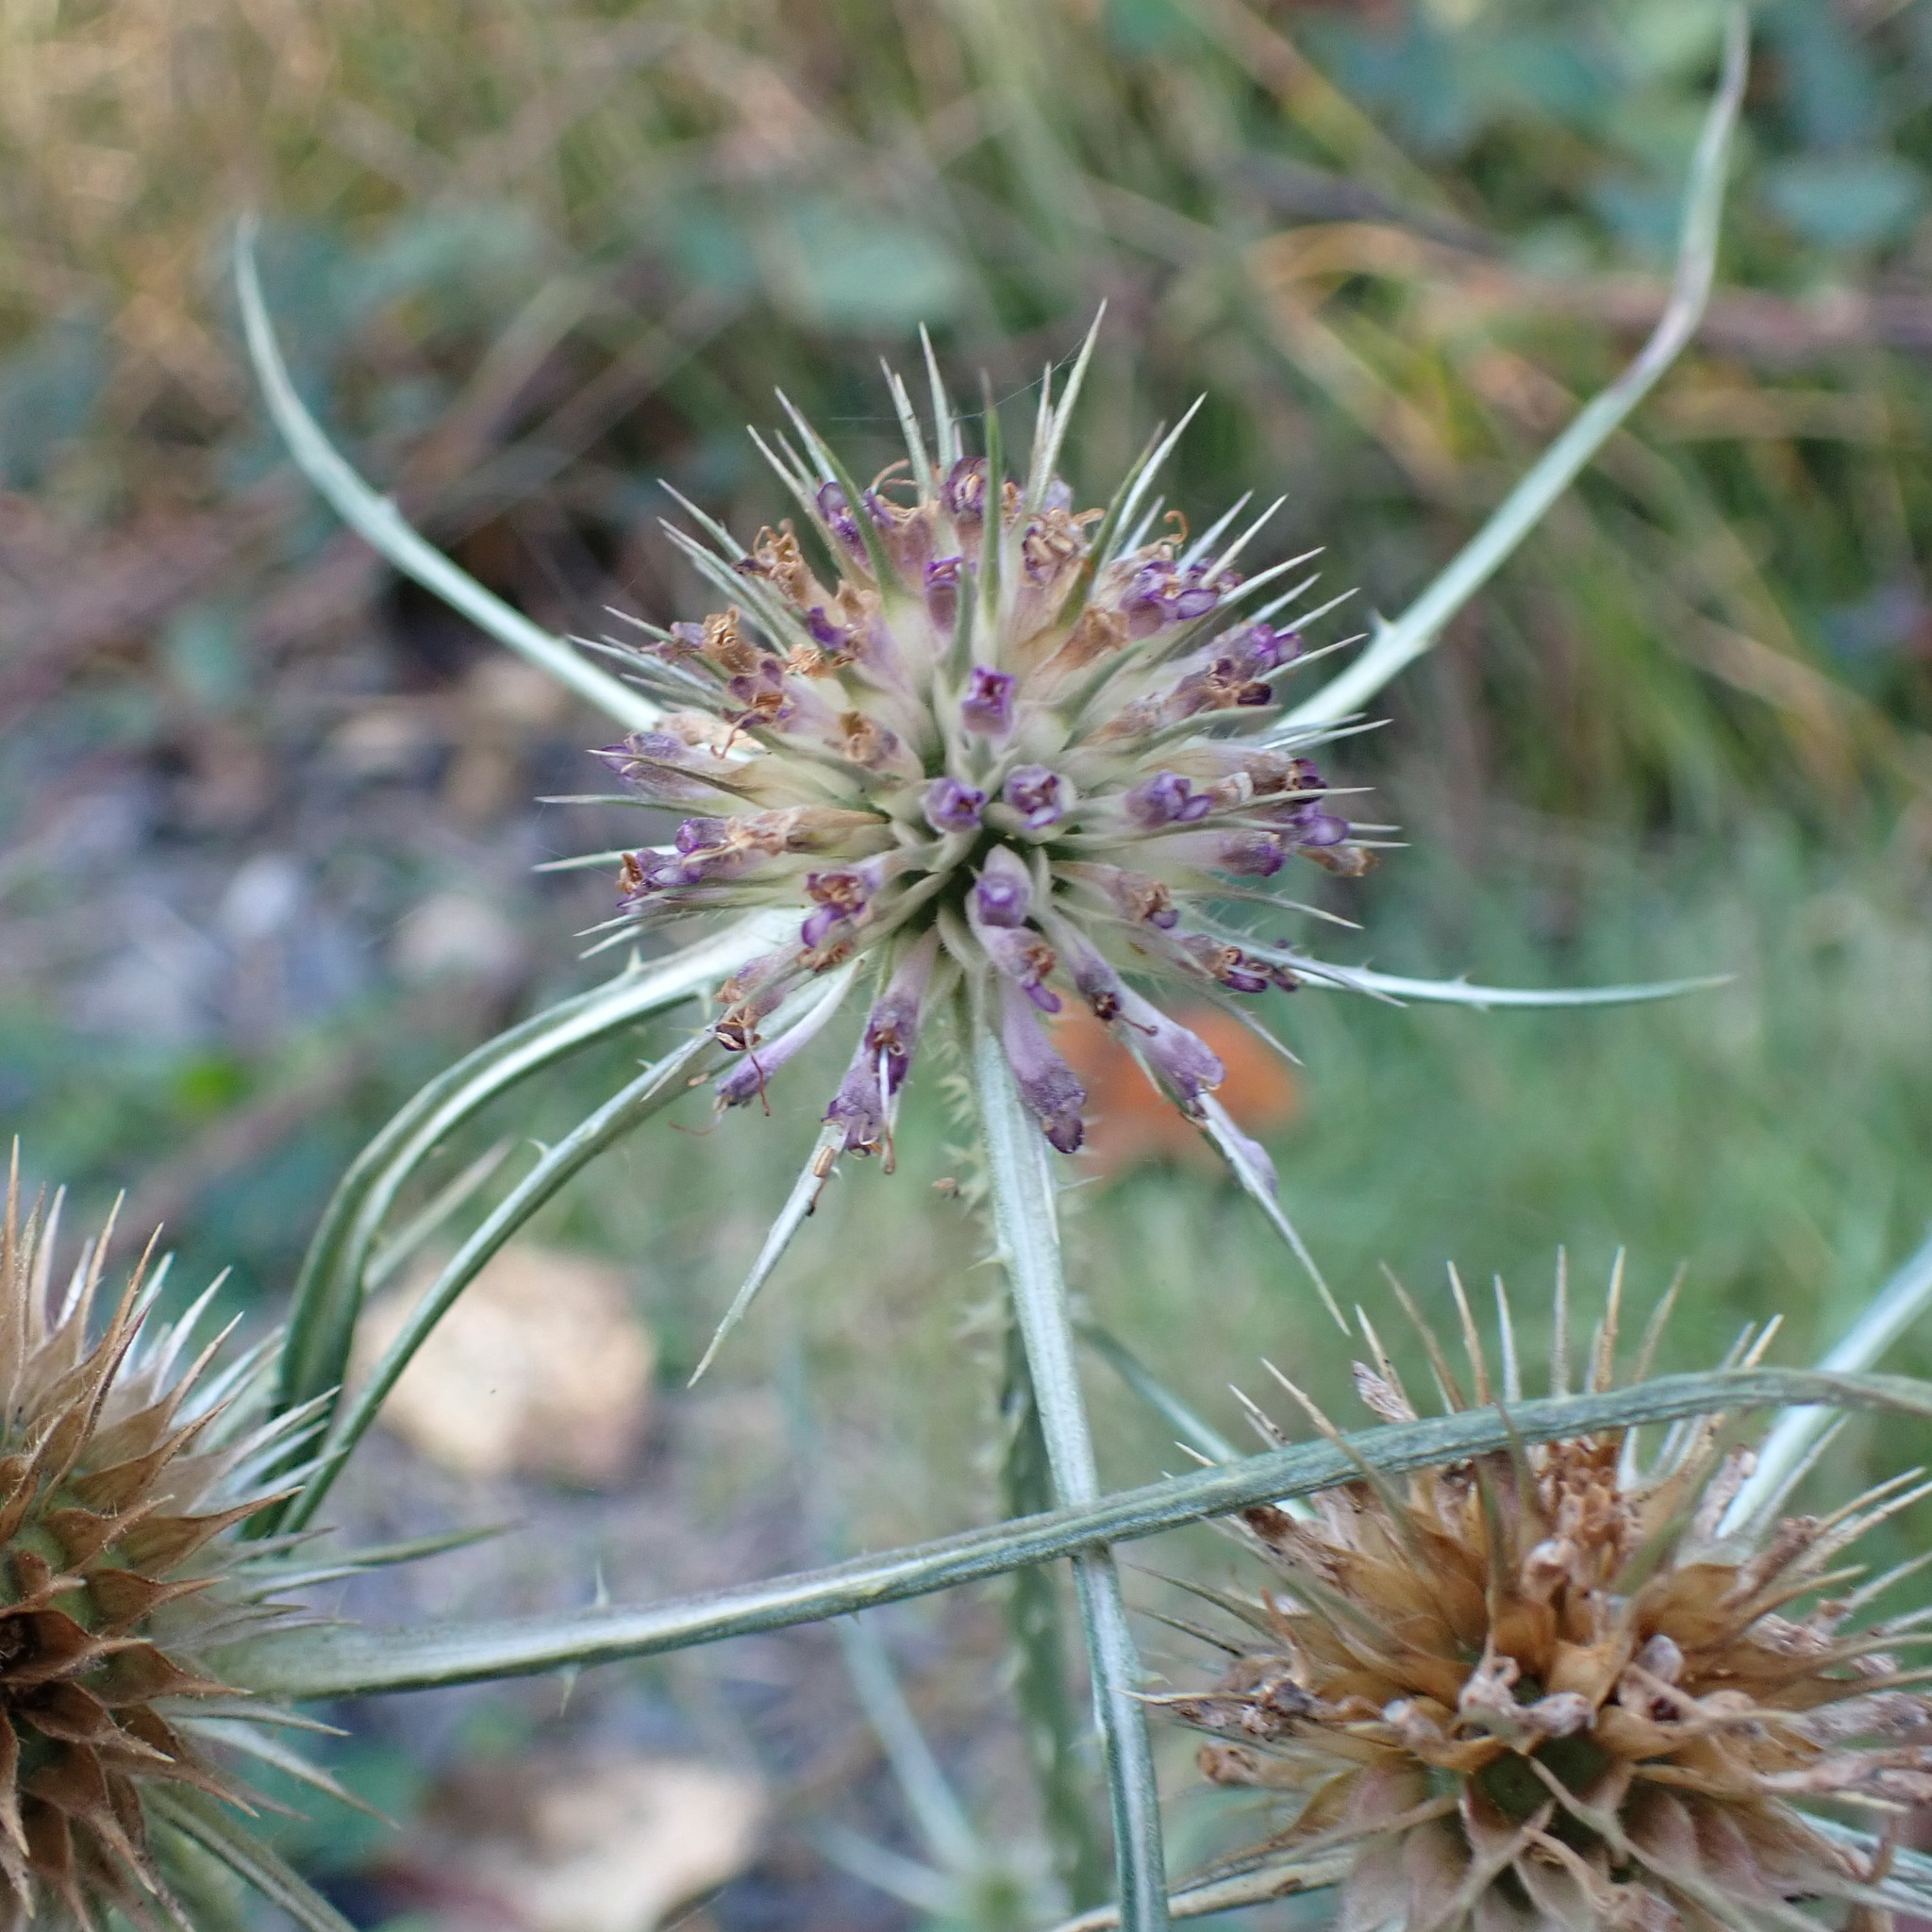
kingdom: Plantae
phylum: Tracheophyta
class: Magnoliopsida
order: Dipsacales
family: Caprifoliaceae
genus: Dipsacus
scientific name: Dipsacus fullonum
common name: Teasel
